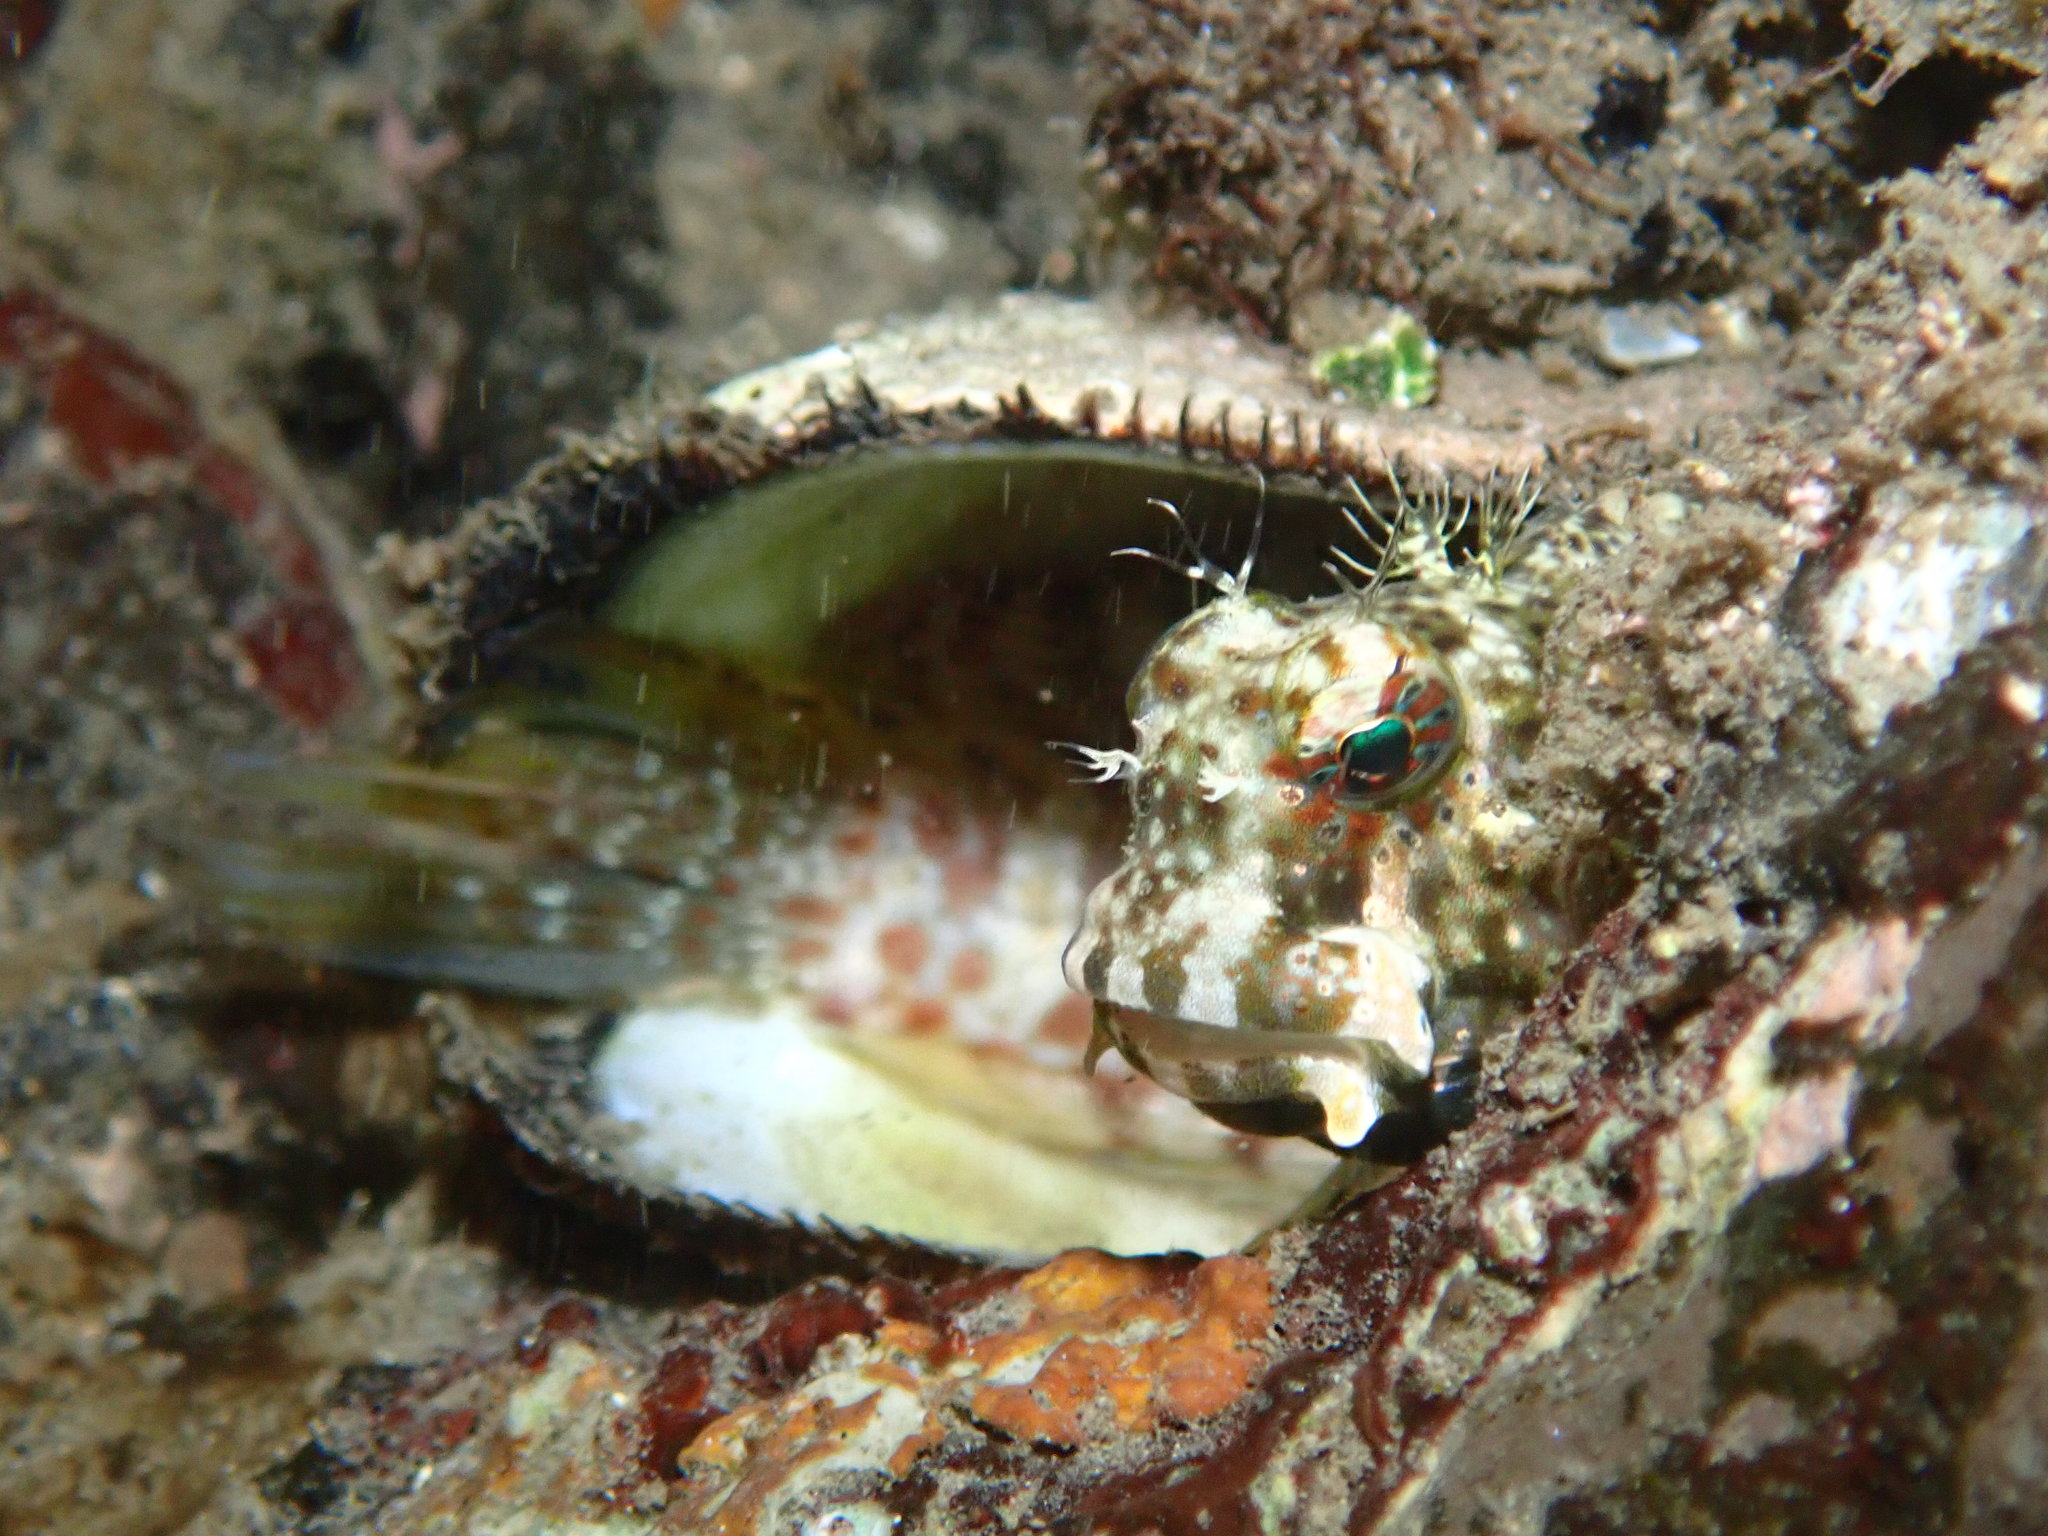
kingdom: Animalia
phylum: Chordata
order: Perciformes
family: Blenniidae
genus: Salarias
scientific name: Salarias fasciatus
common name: Jewelled blenny
